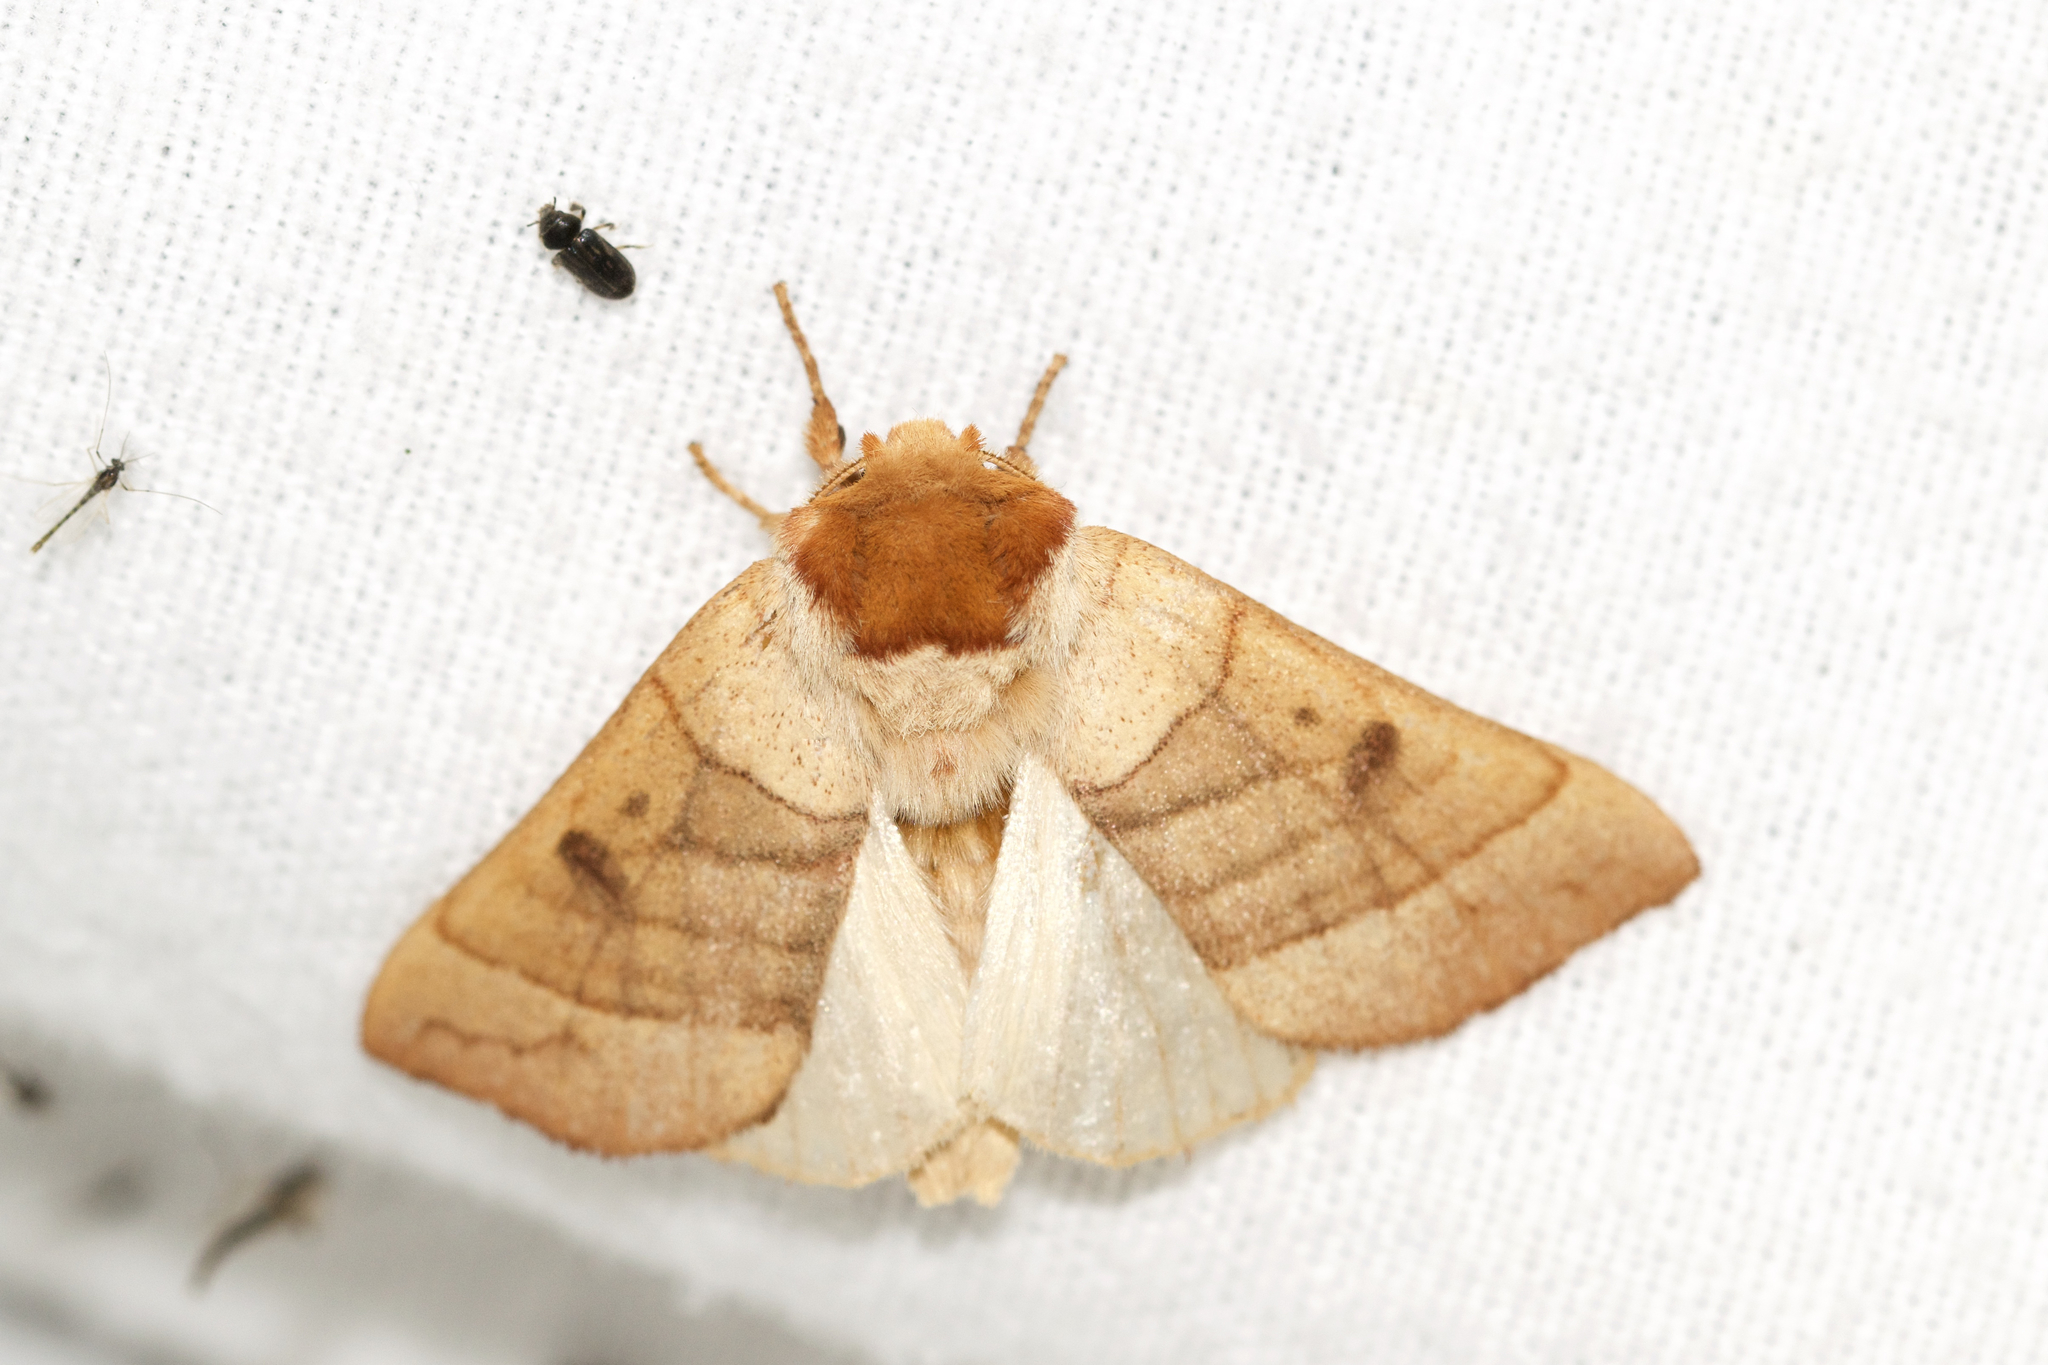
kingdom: Animalia
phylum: Arthropoda
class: Insecta
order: Lepidoptera
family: Notodontidae
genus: Datana
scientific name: Datana perspicua
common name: Spotted datana
